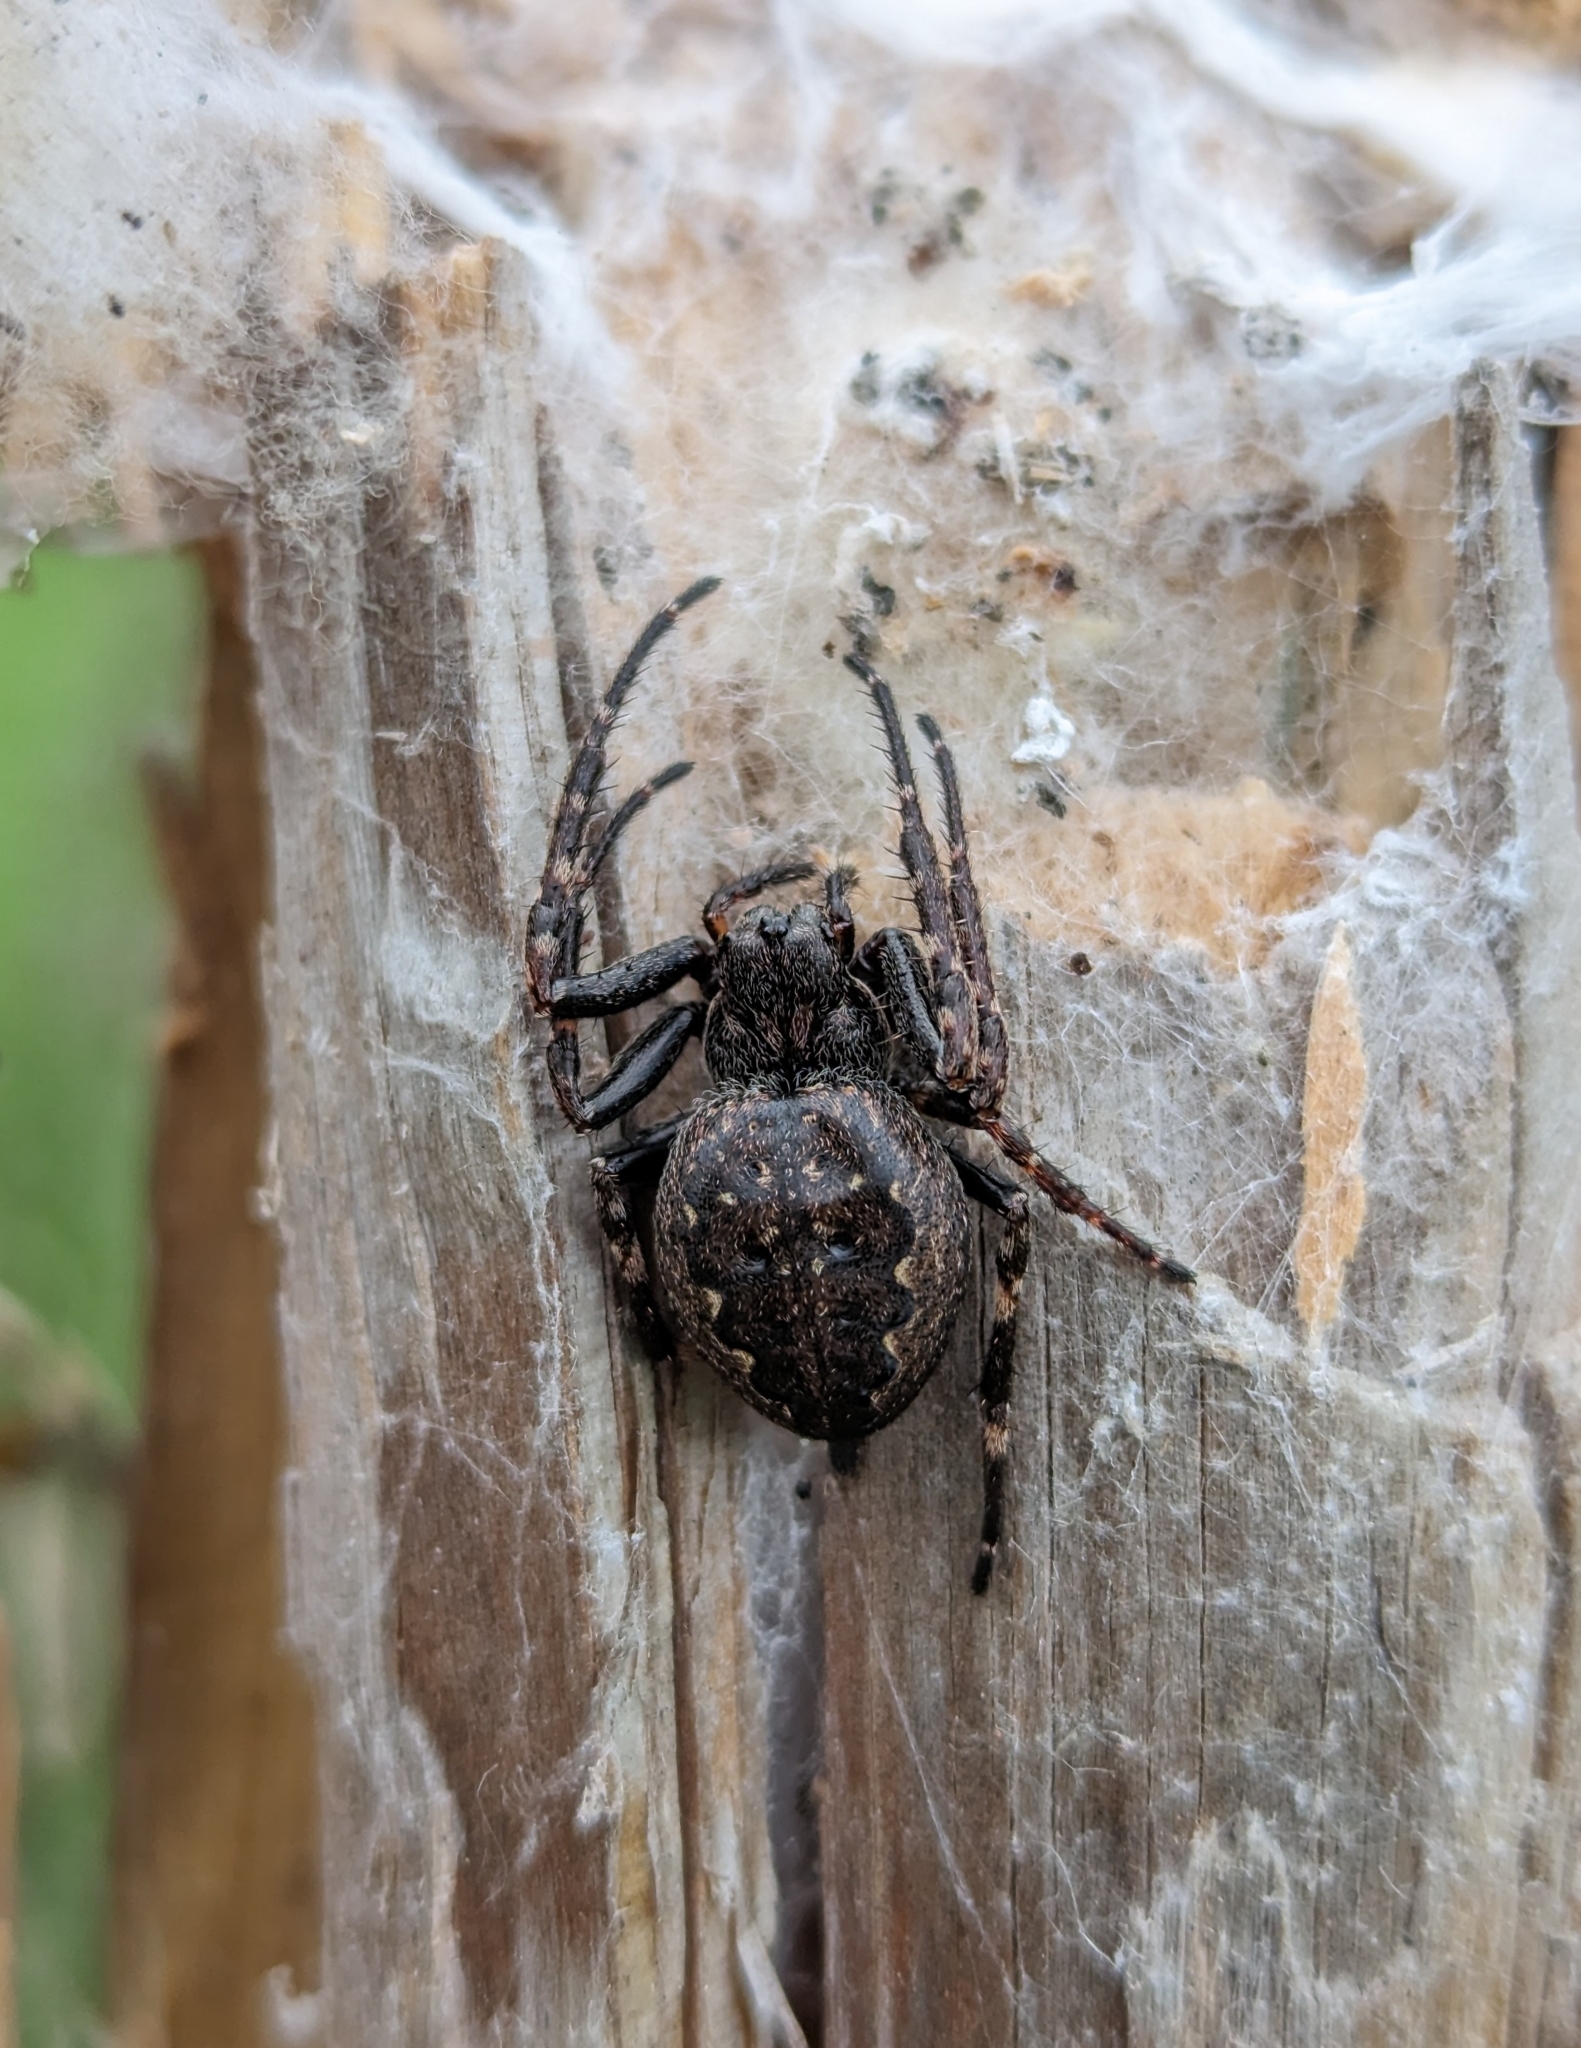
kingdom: Animalia
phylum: Arthropoda
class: Arachnida
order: Araneae
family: Araneidae
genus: Nuctenea
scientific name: Nuctenea umbratica
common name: Toad spider
